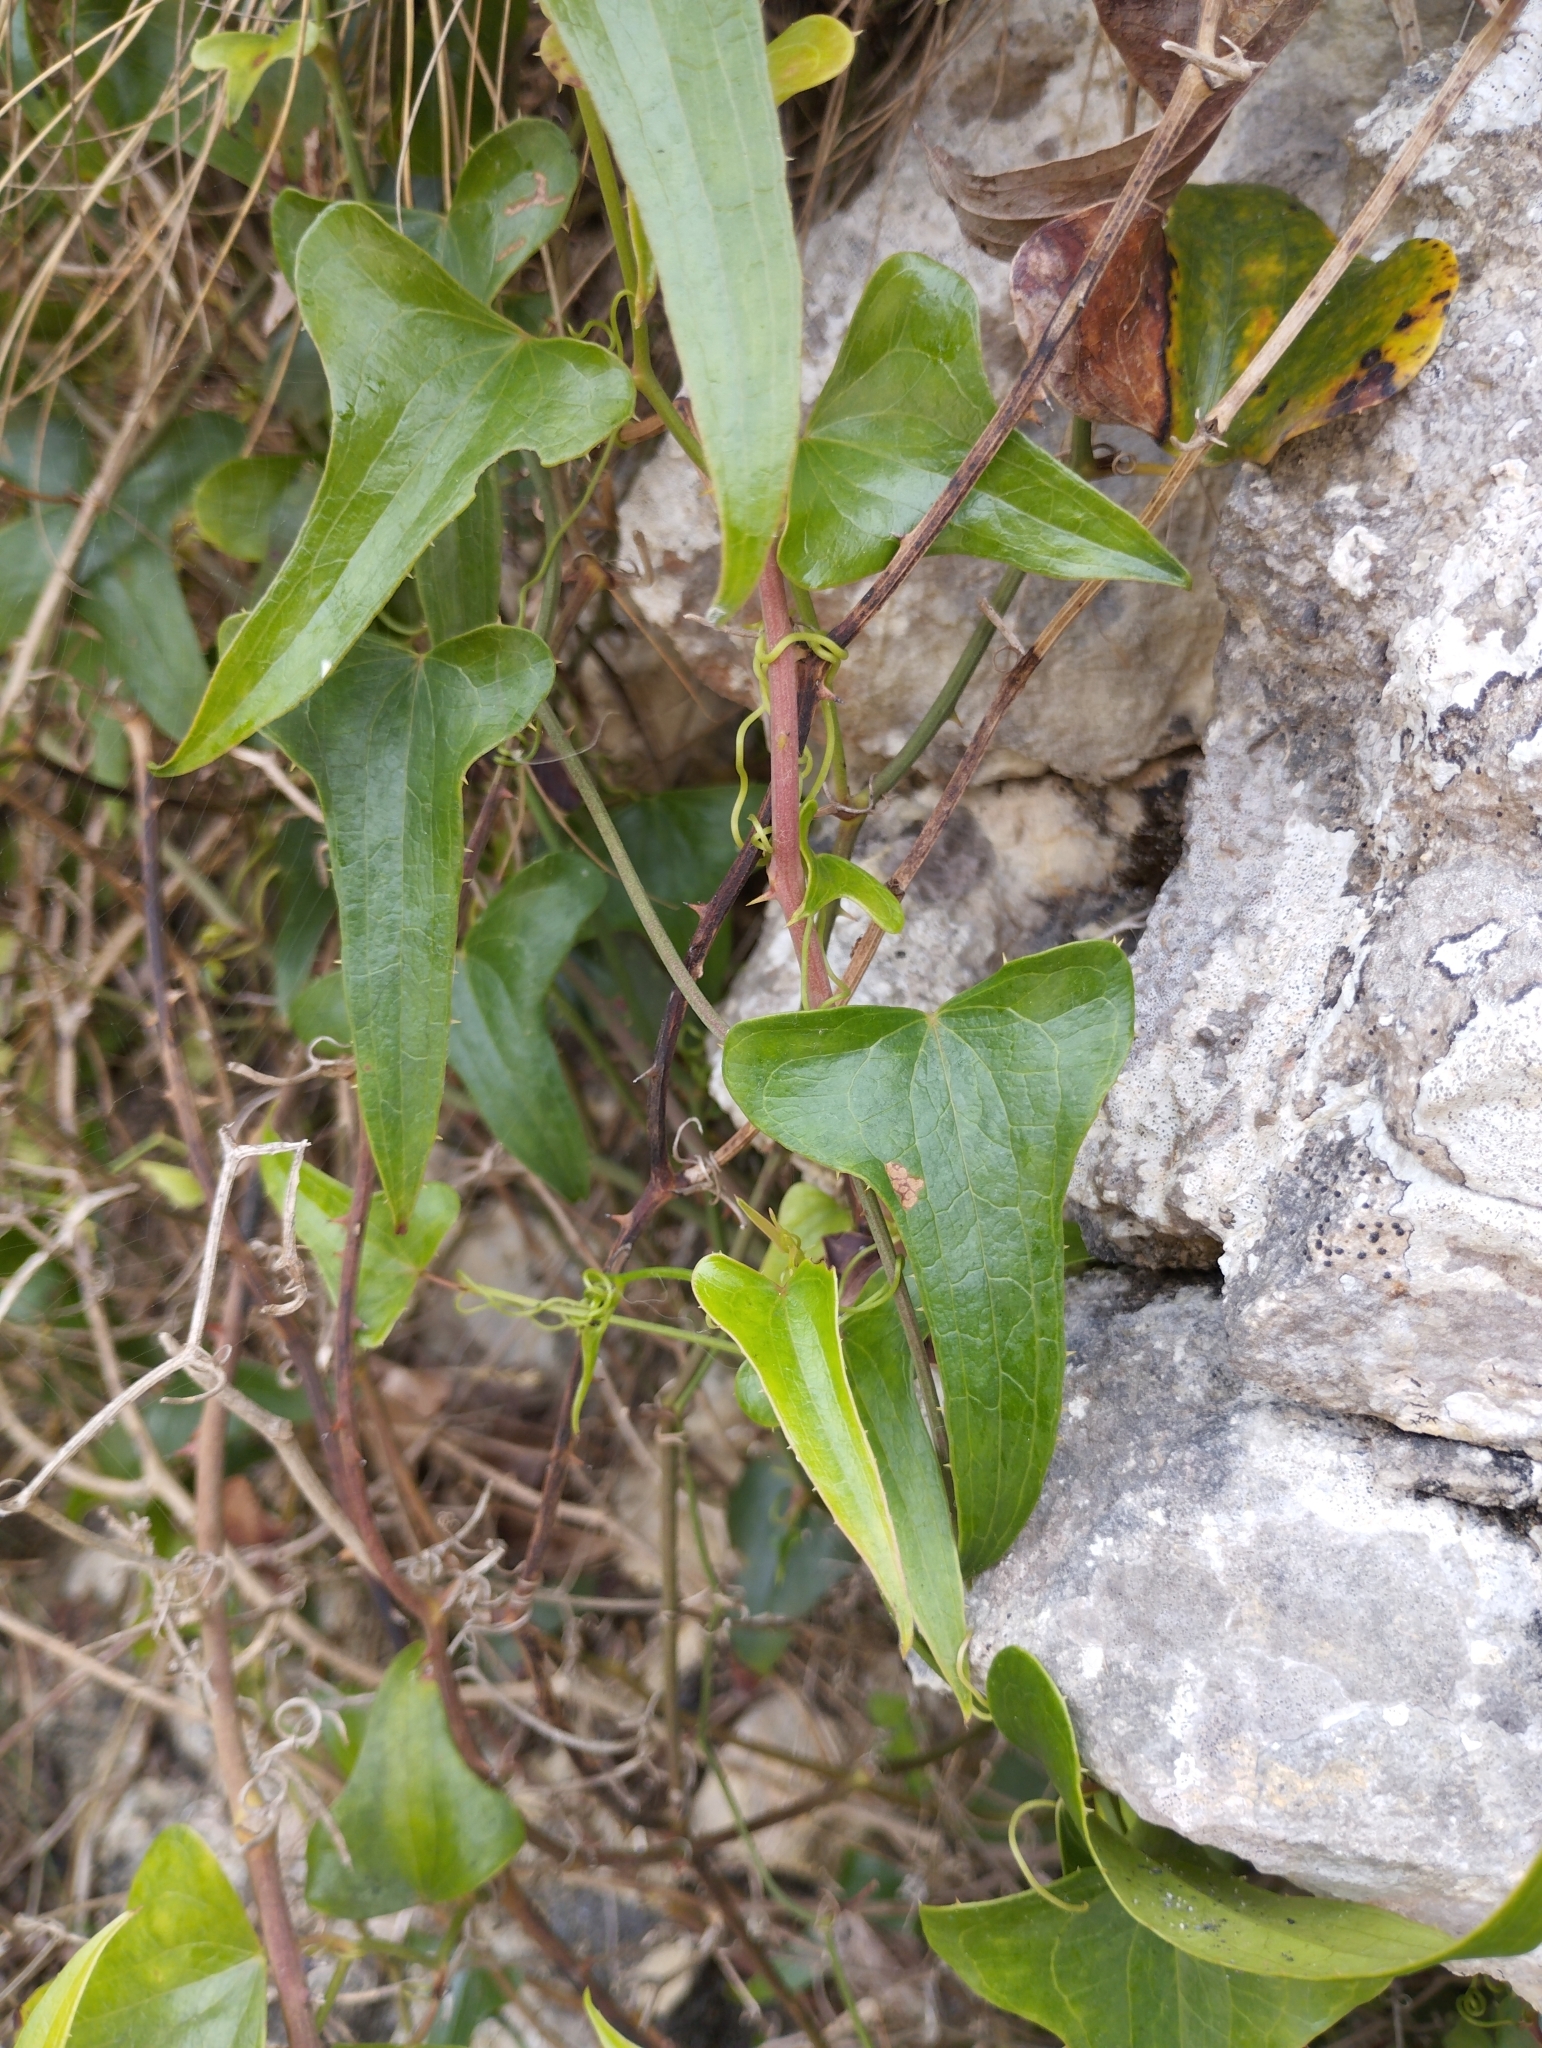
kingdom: Plantae
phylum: Tracheophyta
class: Liliopsida
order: Liliales
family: Smilacaceae
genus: Smilax
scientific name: Smilax aspera
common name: Common smilax
